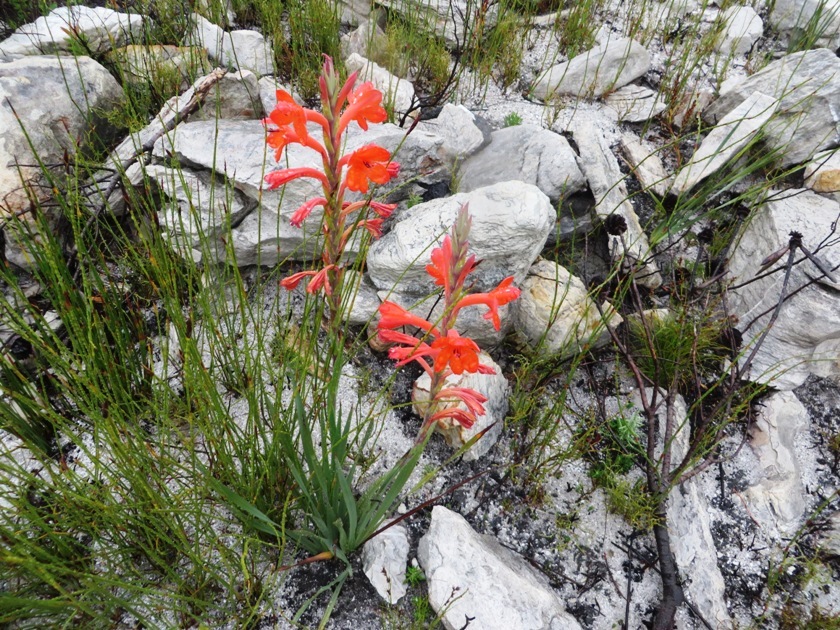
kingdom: Plantae
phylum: Tracheophyta
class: Liliopsida
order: Asparagales
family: Iridaceae
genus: Watsonia
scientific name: Watsonia schlechteri
